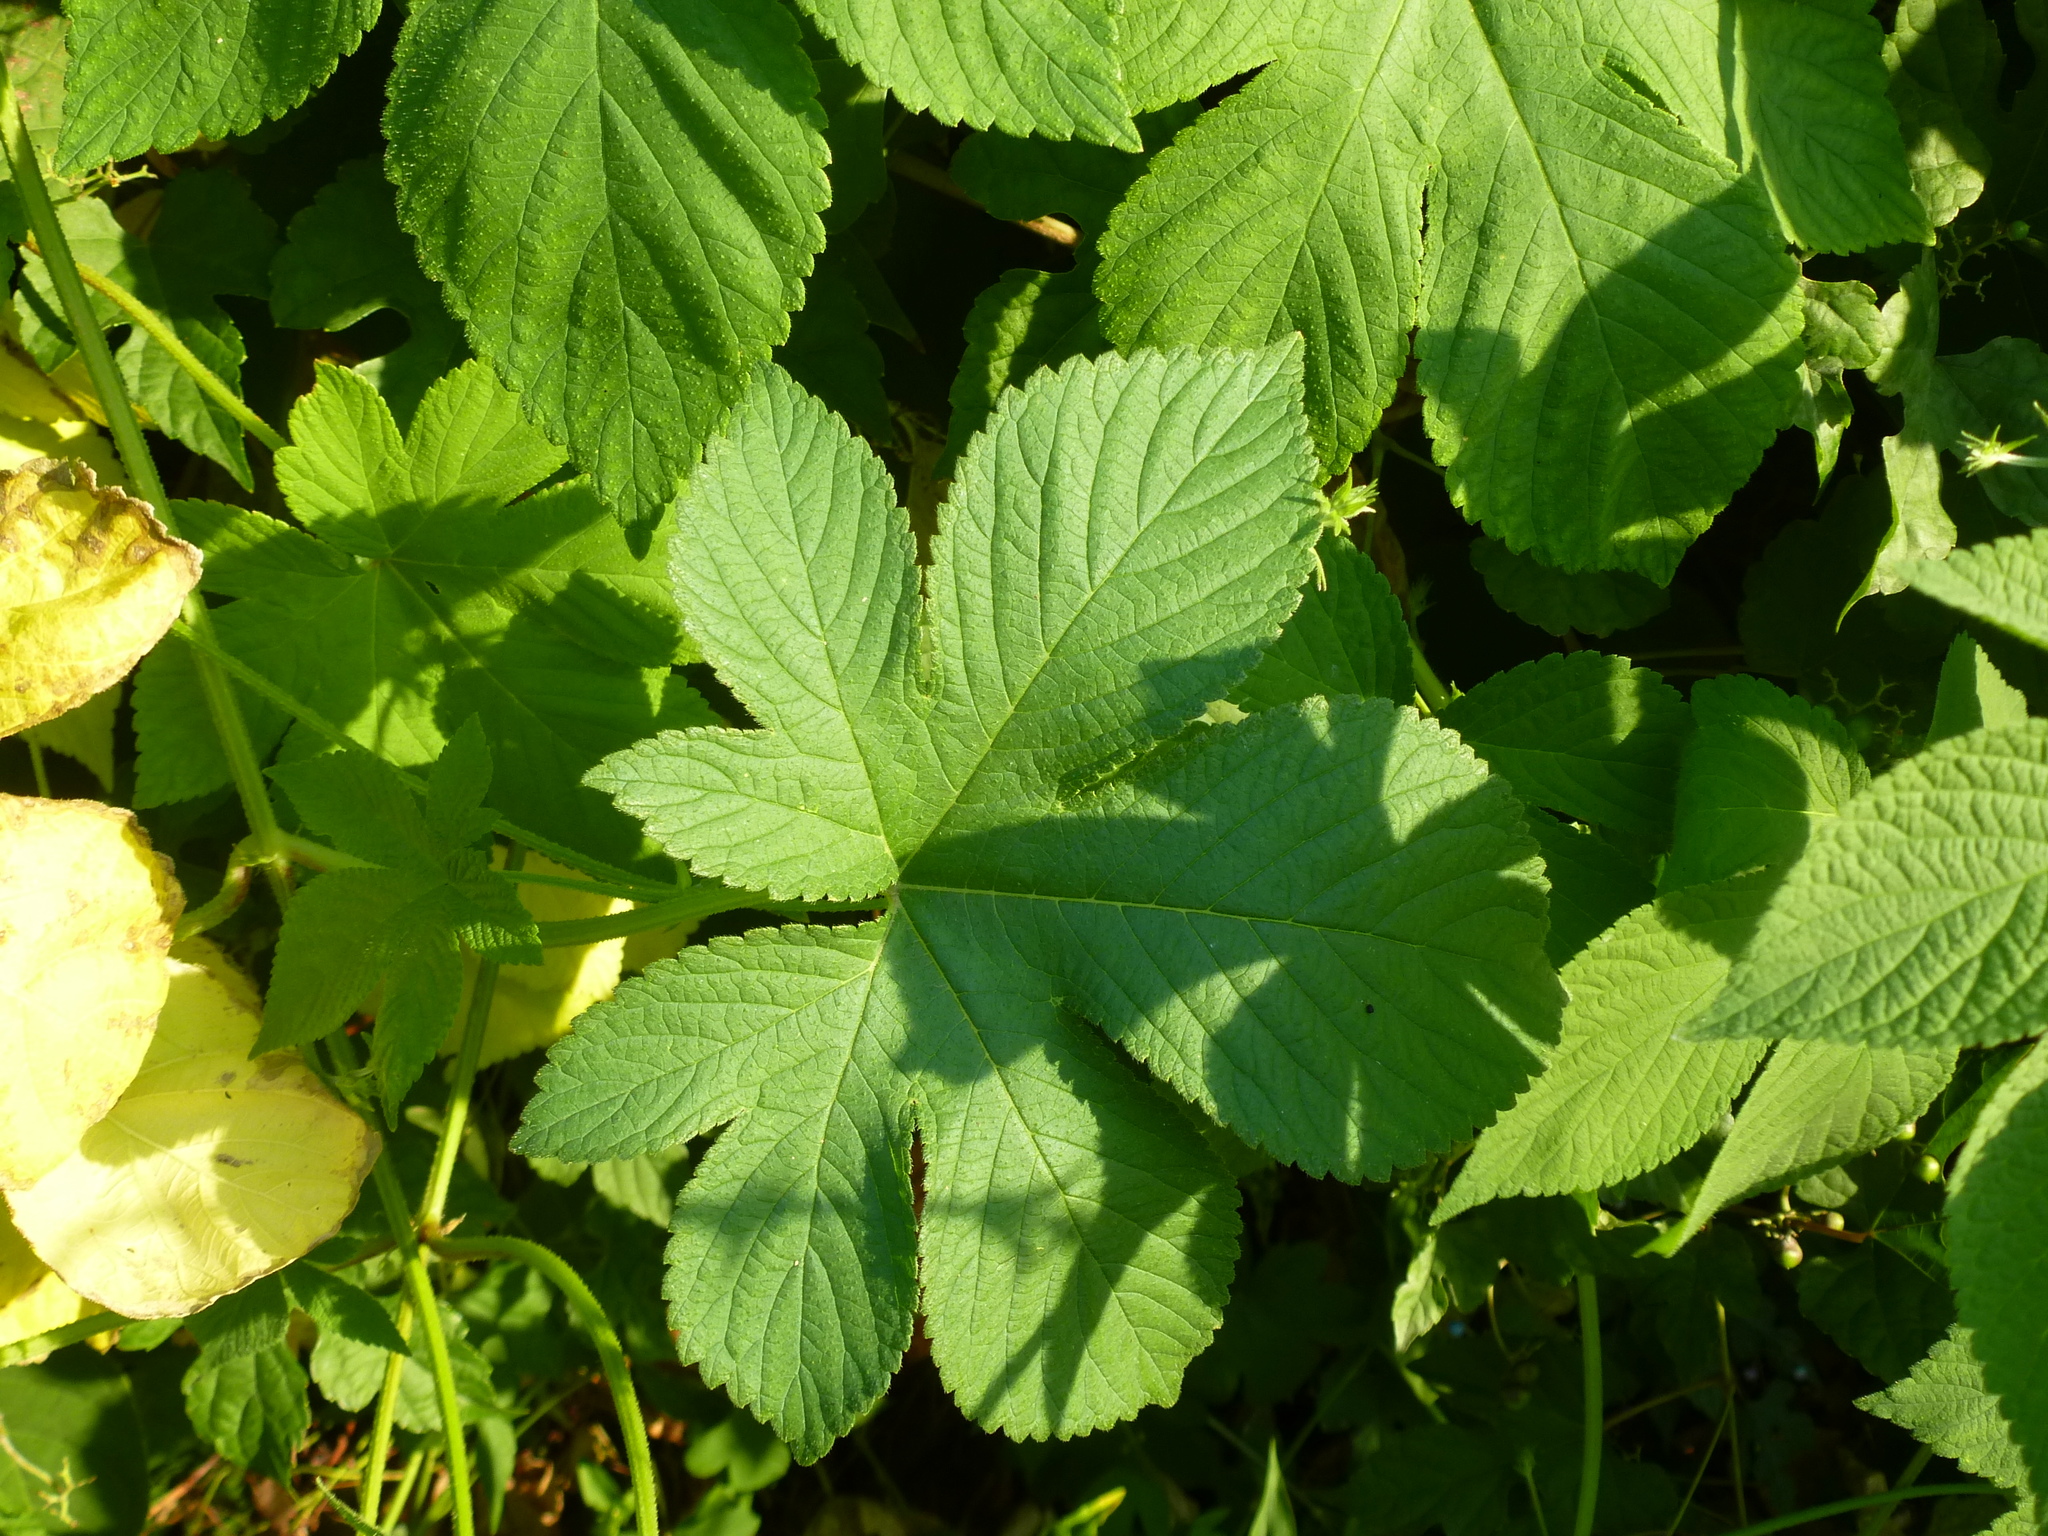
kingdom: Plantae
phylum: Tracheophyta
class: Magnoliopsida
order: Rosales
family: Cannabaceae
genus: Humulus
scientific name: Humulus scandens
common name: Japanese hop
